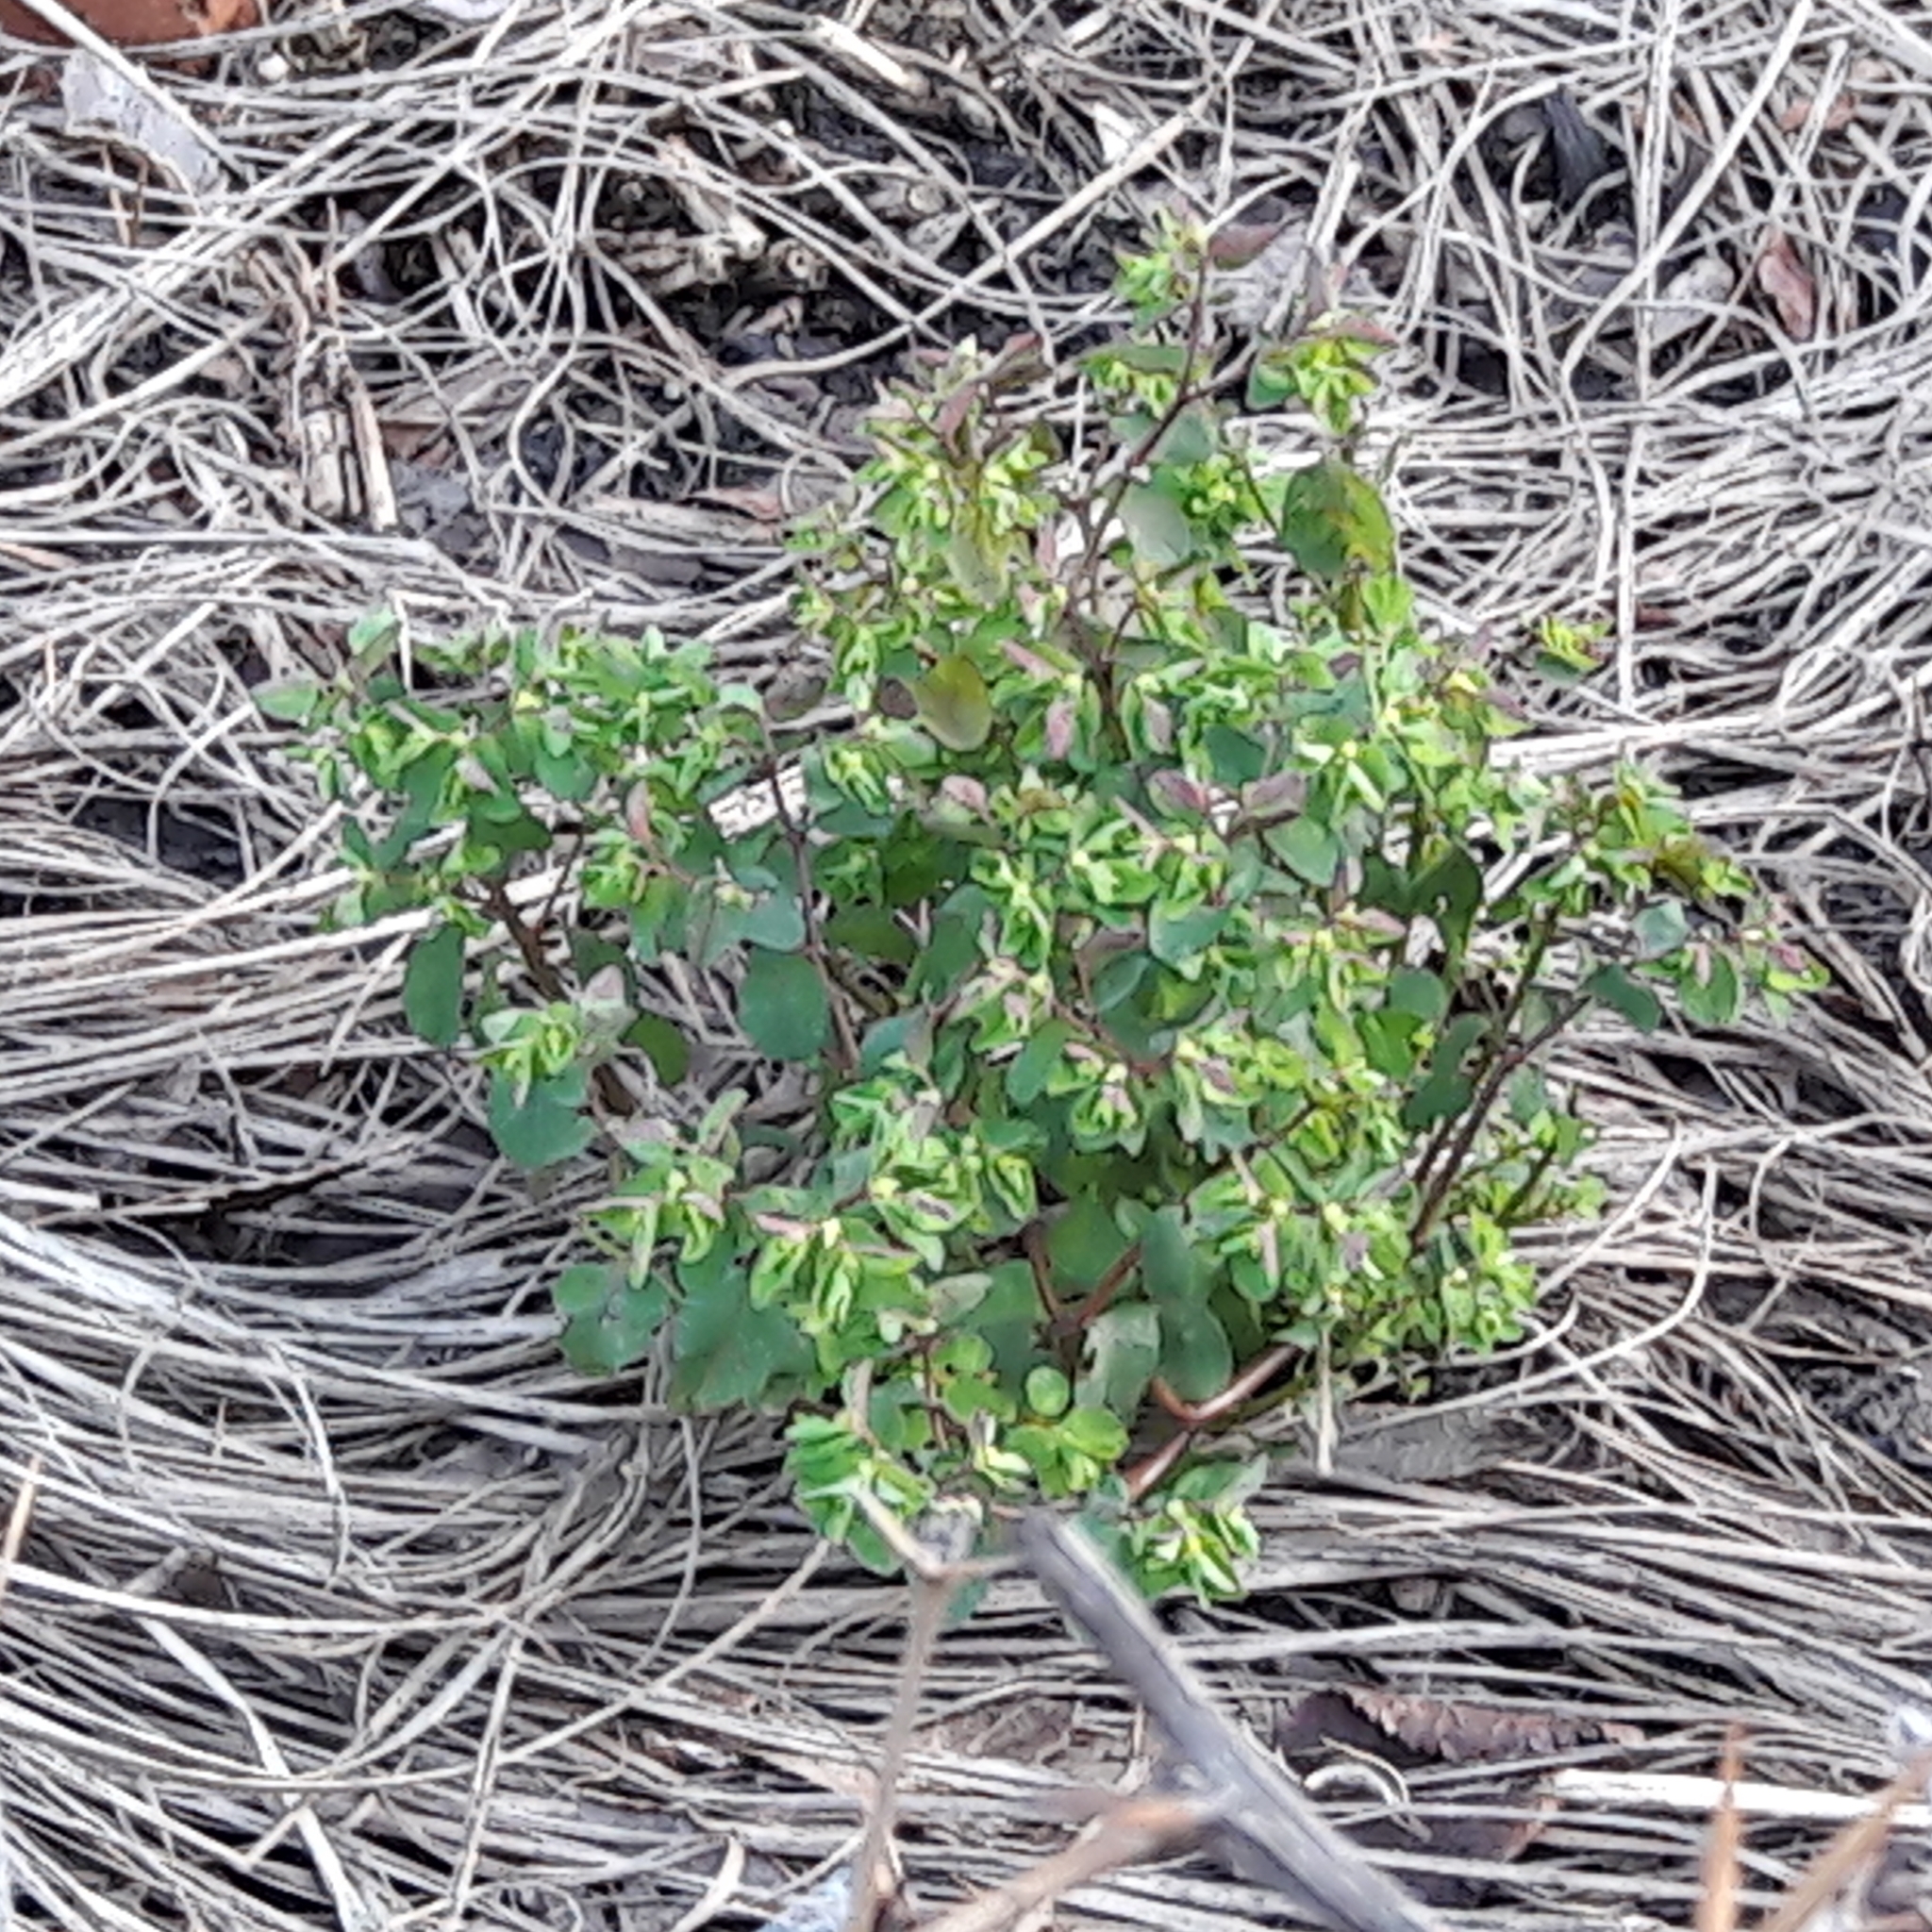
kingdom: Plantae
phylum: Tracheophyta
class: Magnoliopsida
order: Malpighiales
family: Euphorbiaceae
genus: Euphorbia
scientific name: Euphorbia peplus
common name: Petty spurge
